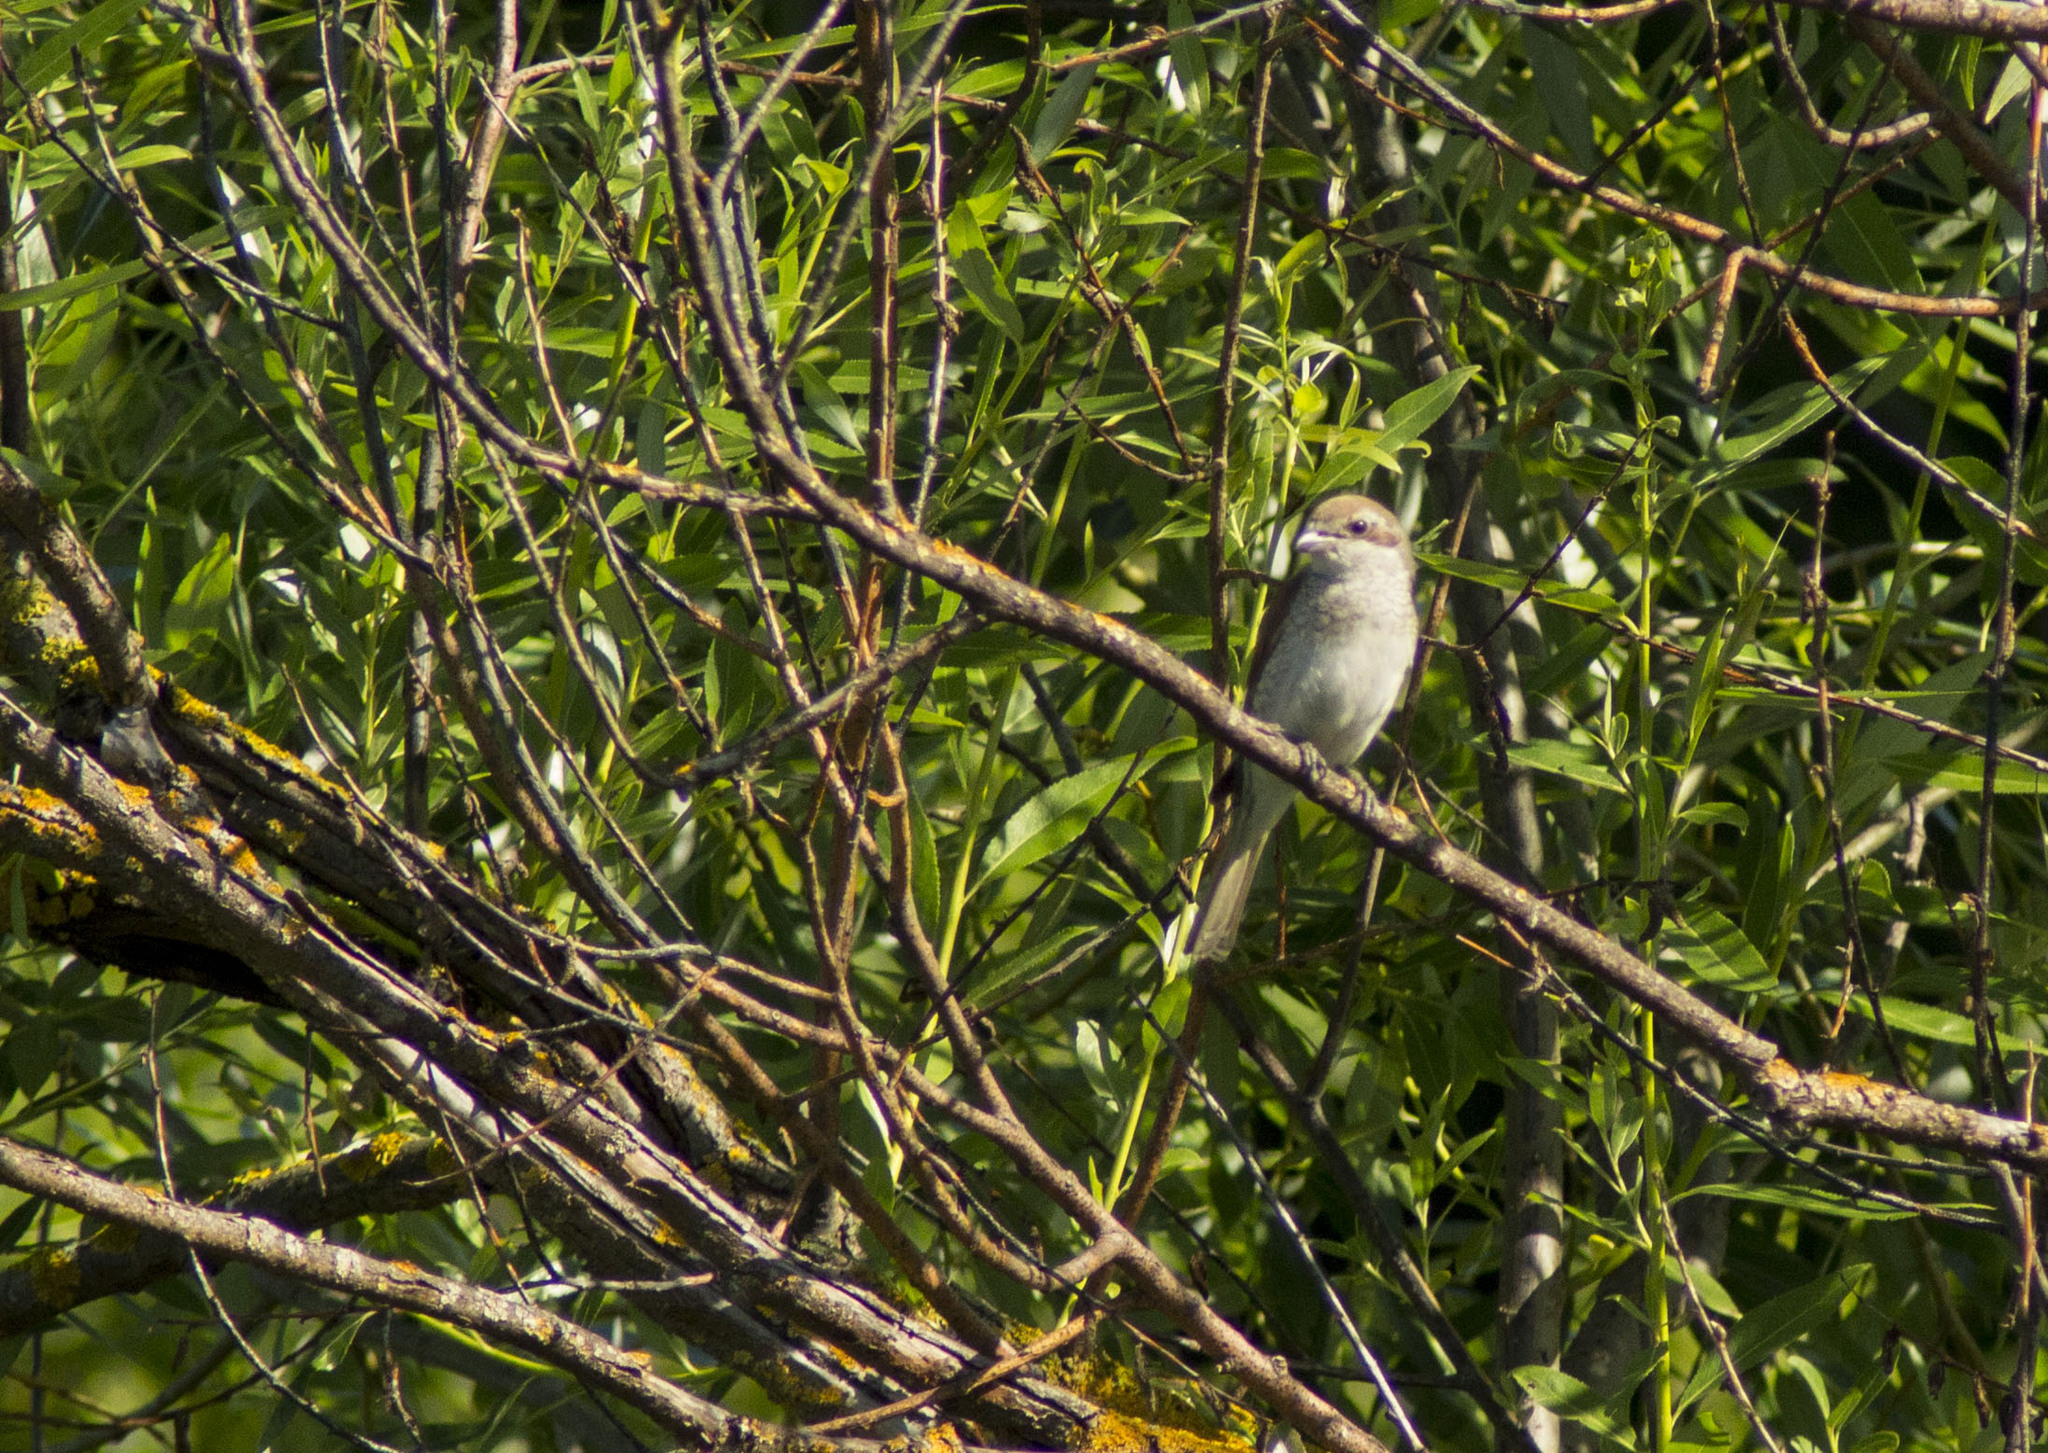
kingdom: Animalia
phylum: Chordata
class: Aves
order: Passeriformes
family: Laniidae
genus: Lanius
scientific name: Lanius collurio
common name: Red-backed shrike
